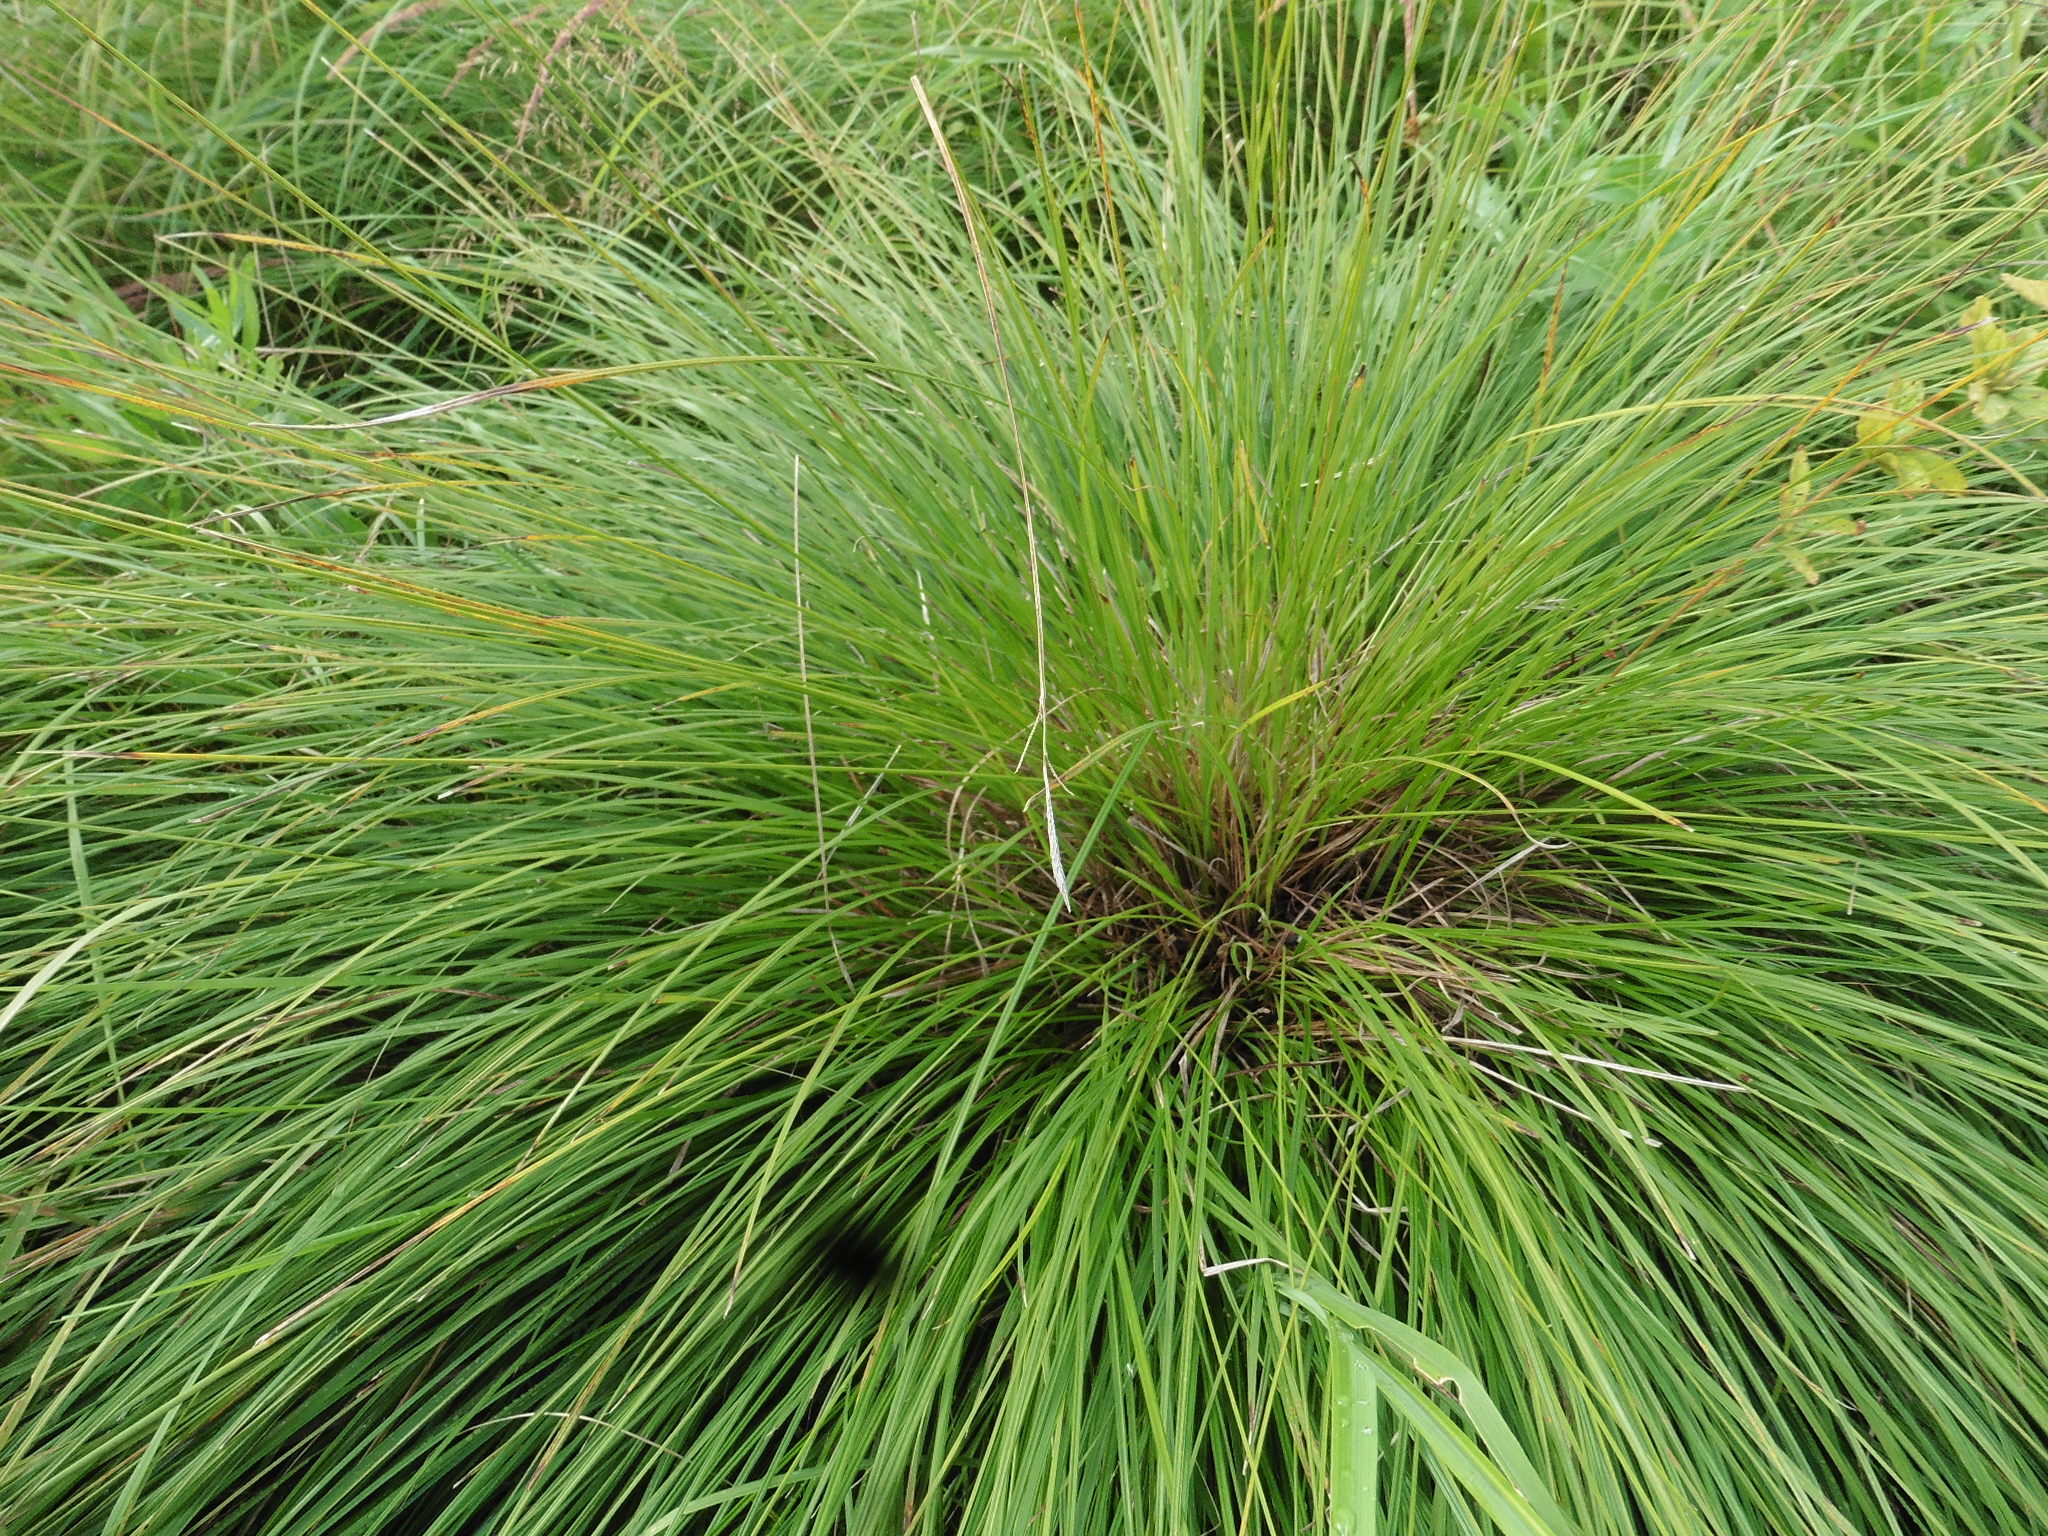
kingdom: Plantae
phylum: Tracheophyta
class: Liliopsida
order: Poales
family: Cyperaceae
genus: Carex
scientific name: Carex cespitosa
